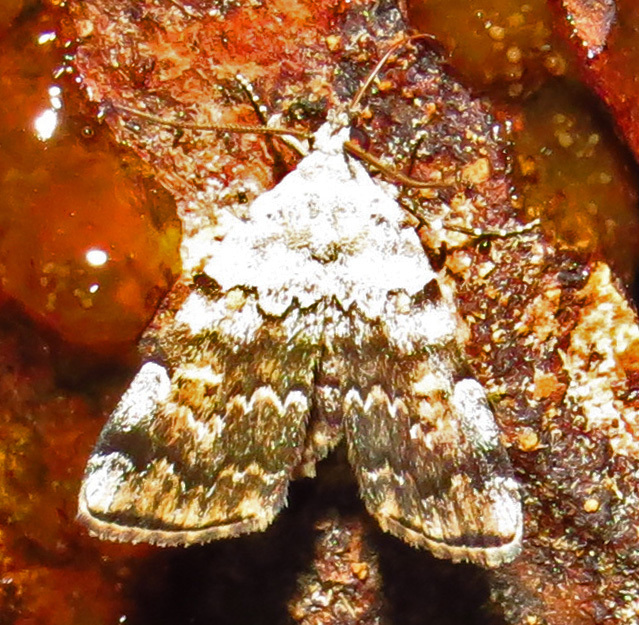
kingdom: Animalia
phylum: Arthropoda
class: Insecta
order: Lepidoptera
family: Erebidae
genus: Idia
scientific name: Idia americalis
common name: American idia moth
